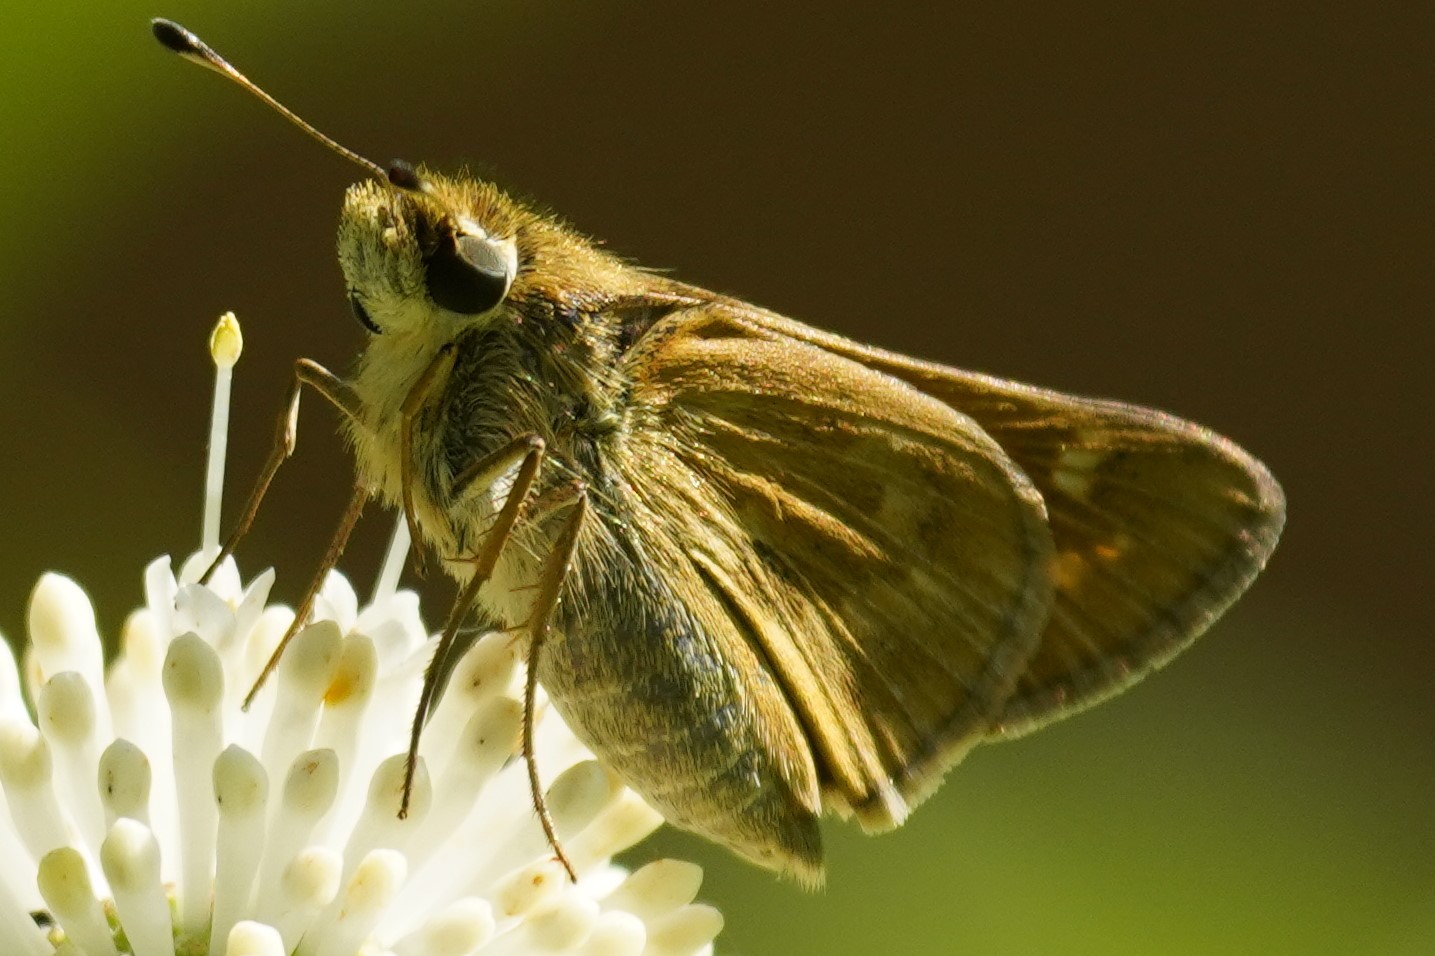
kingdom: Animalia
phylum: Arthropoda
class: Insecta
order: Lepidoptera
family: Hesperiidae
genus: Atalopedes
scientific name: Atalopedes
